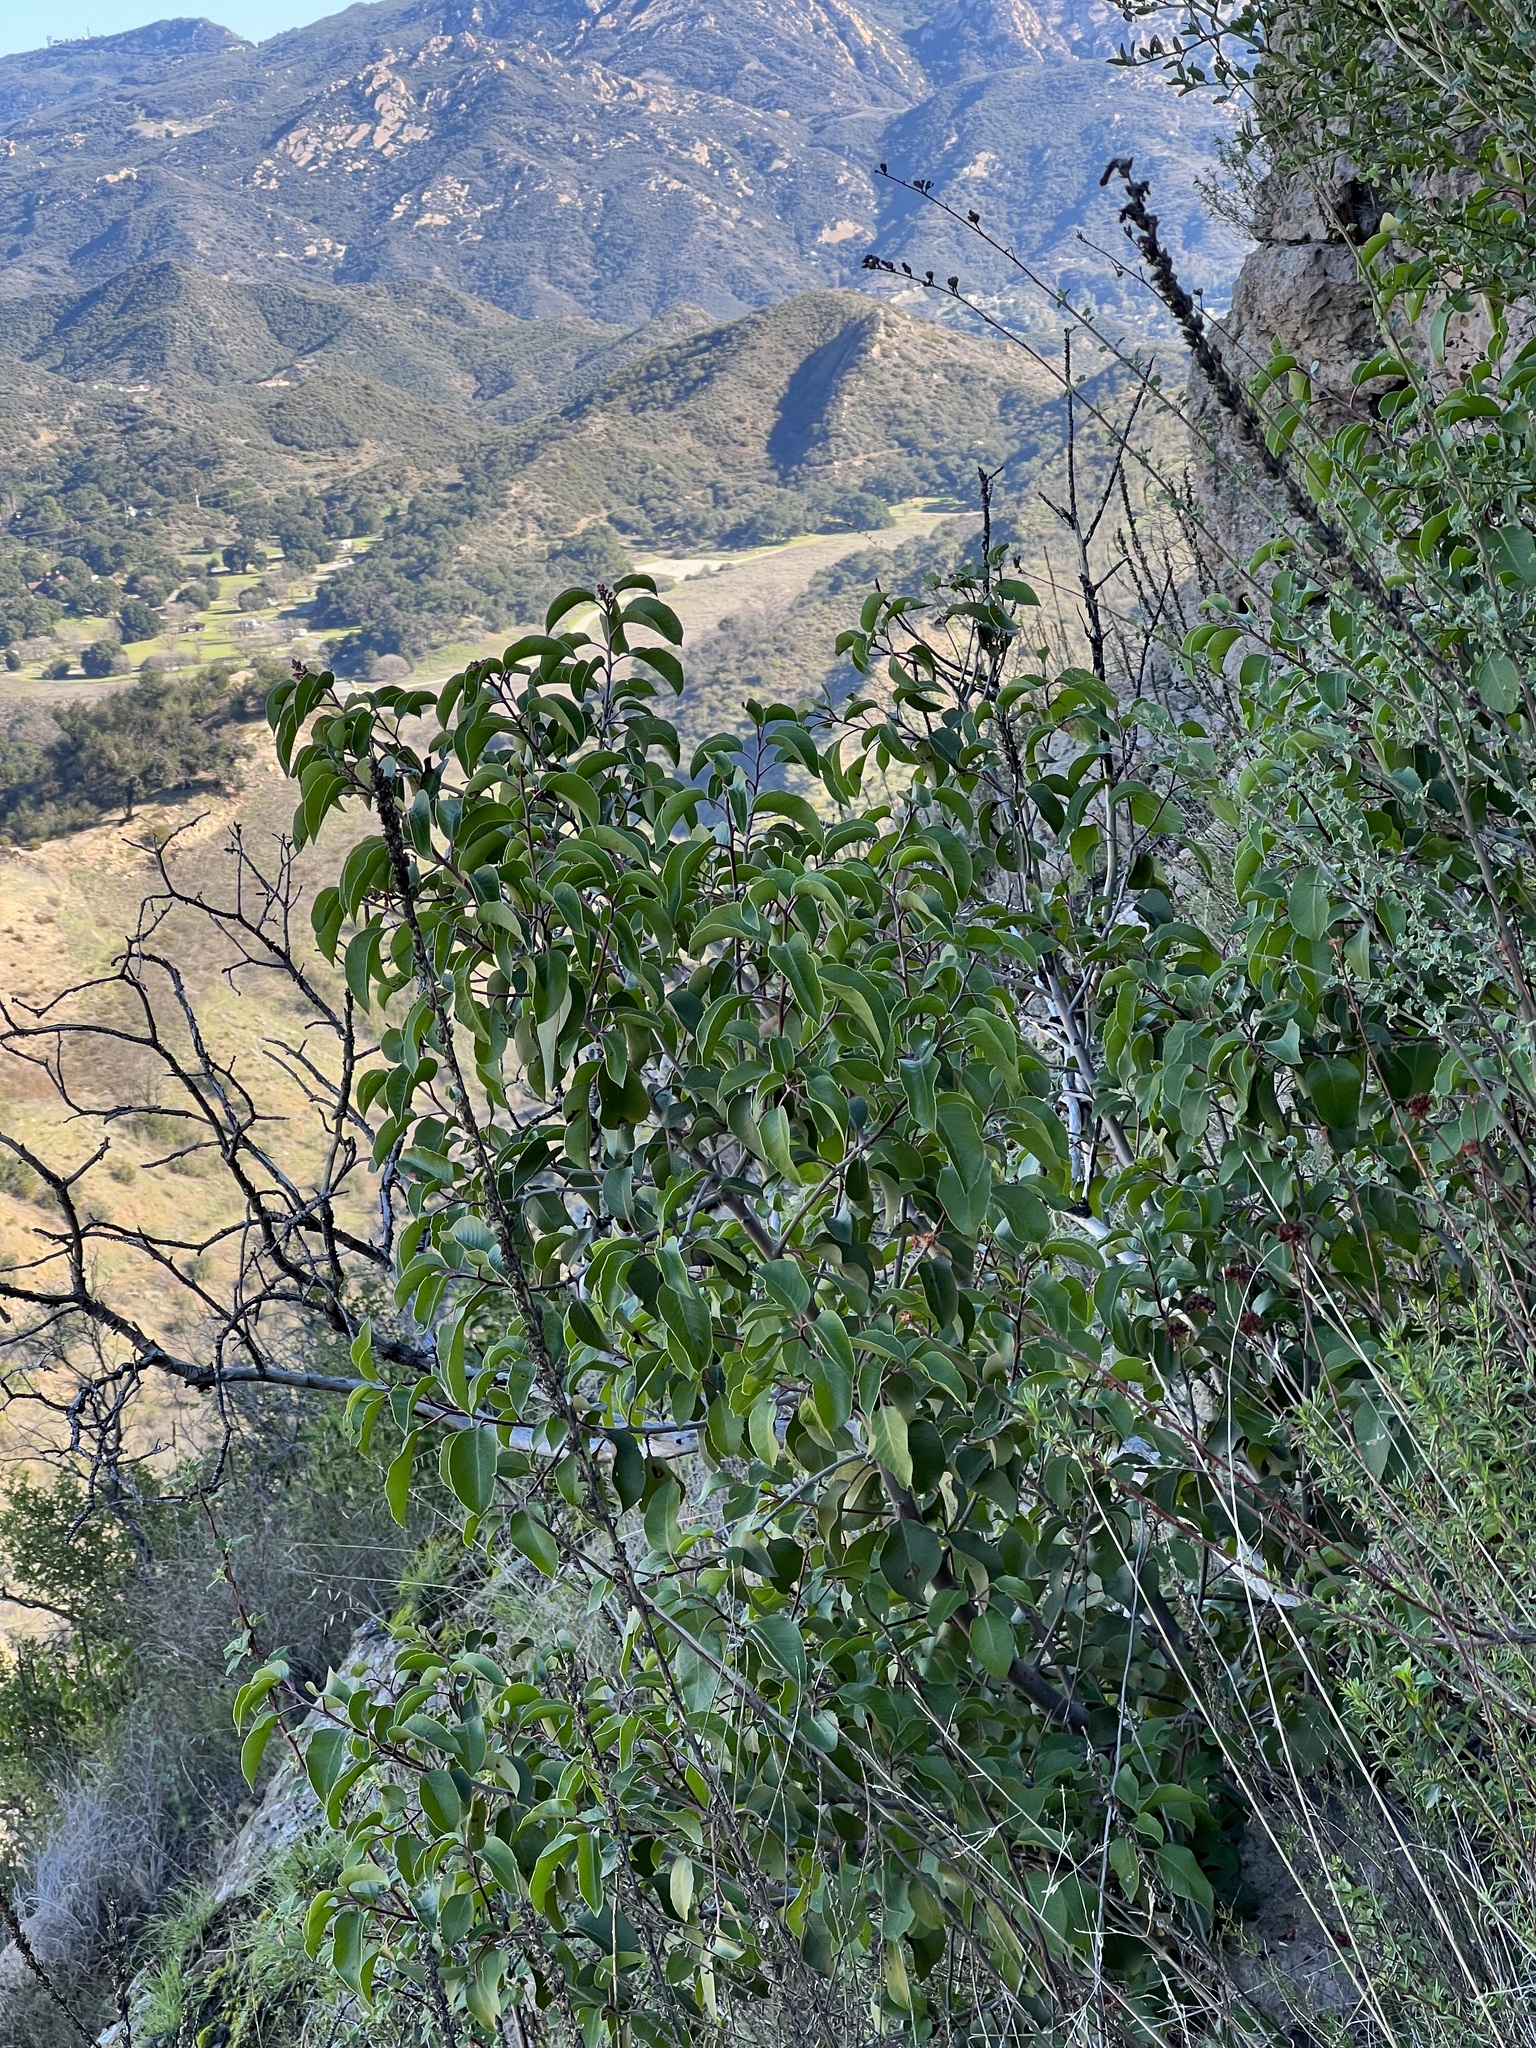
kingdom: Plantae
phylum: Tracheophyta
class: Magnoliopsida
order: Sapindales
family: Anacardiaceae
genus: Rhus
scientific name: Rhus ovata
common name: Sugar sumac
